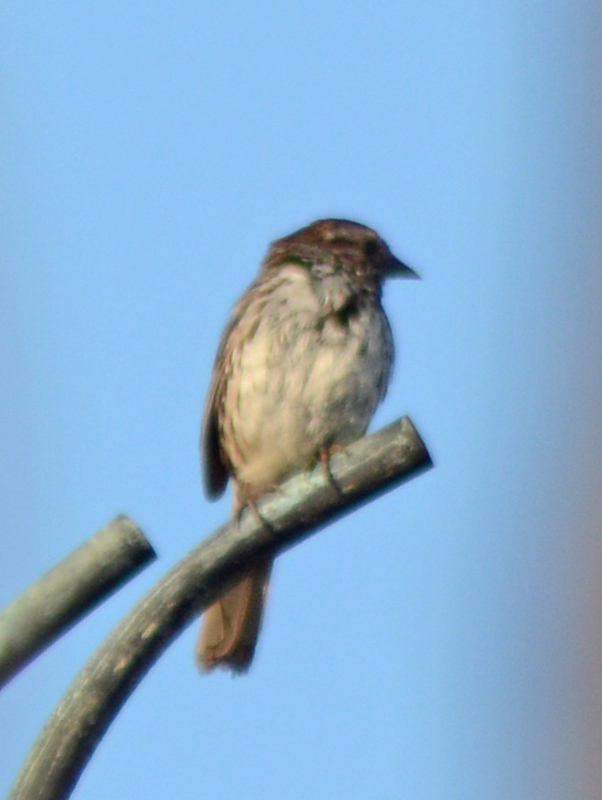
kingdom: Animalia
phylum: Chordata
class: Aves
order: Passeriformes
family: Passerellidae
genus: Melospiza
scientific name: Melospiza melodia
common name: Song sparrow
